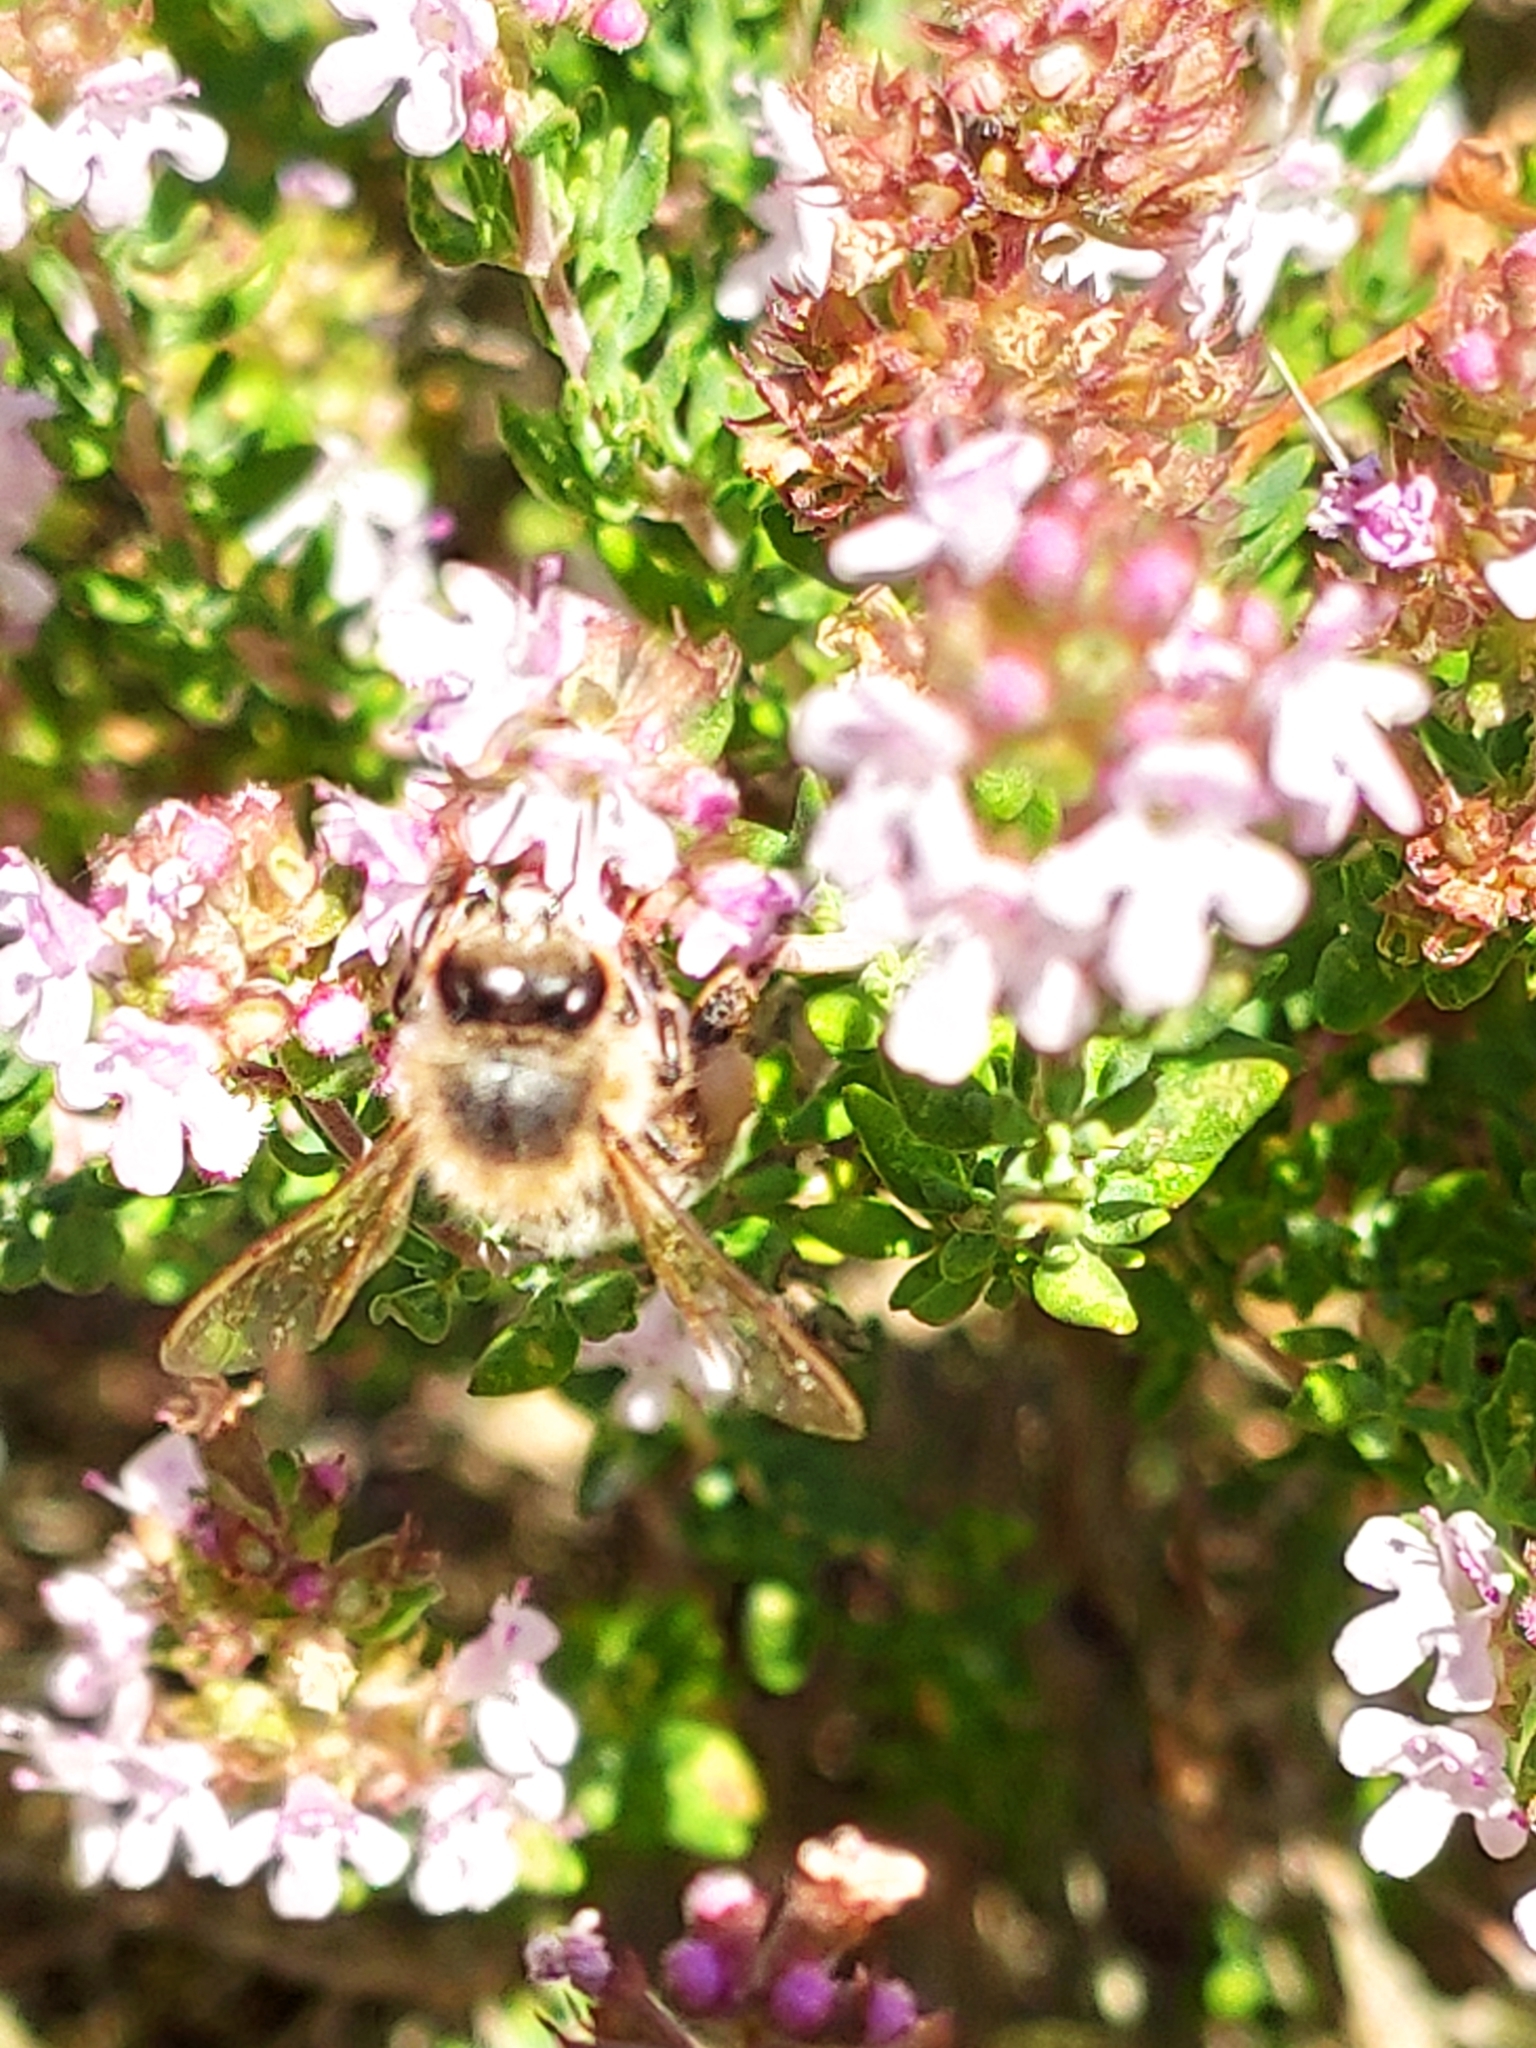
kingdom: Animalia
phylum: Arthropoda
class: Insecta
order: Hymenoptera
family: Apidae
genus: Apis
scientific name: Apis mellifera
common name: Honey bee
